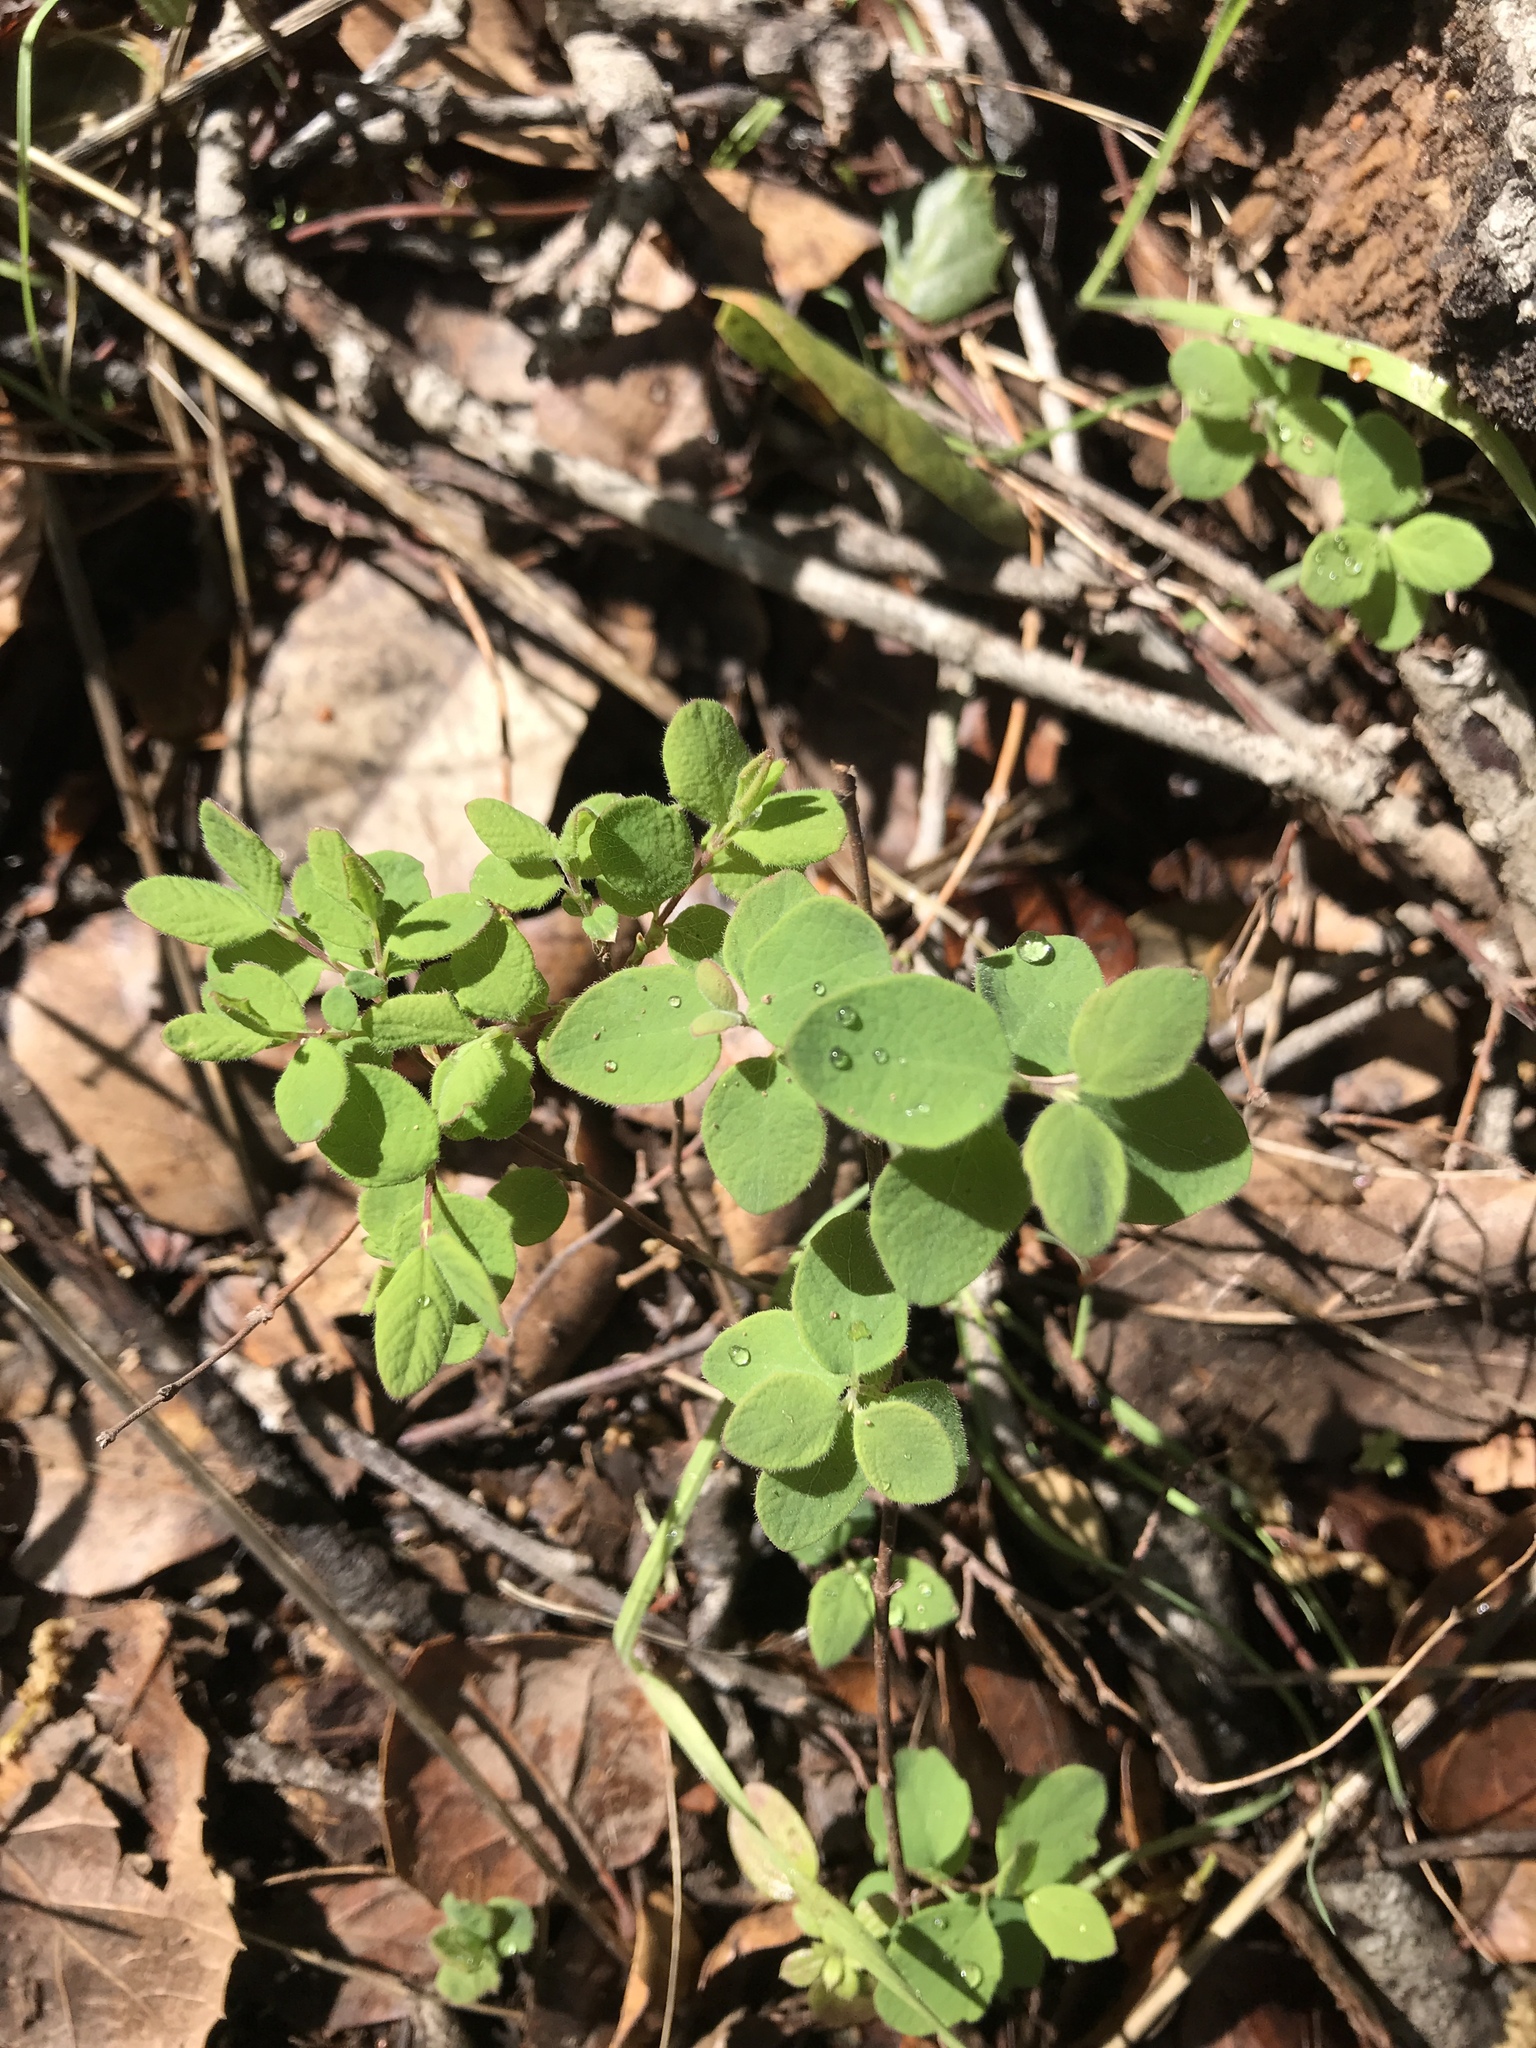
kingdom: Plantae
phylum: Tracheophyta
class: Magnoliopsida
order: Dipsacales
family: Caprifoliaceae
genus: Symphoricarpos
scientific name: Symphoricarpos mollis
